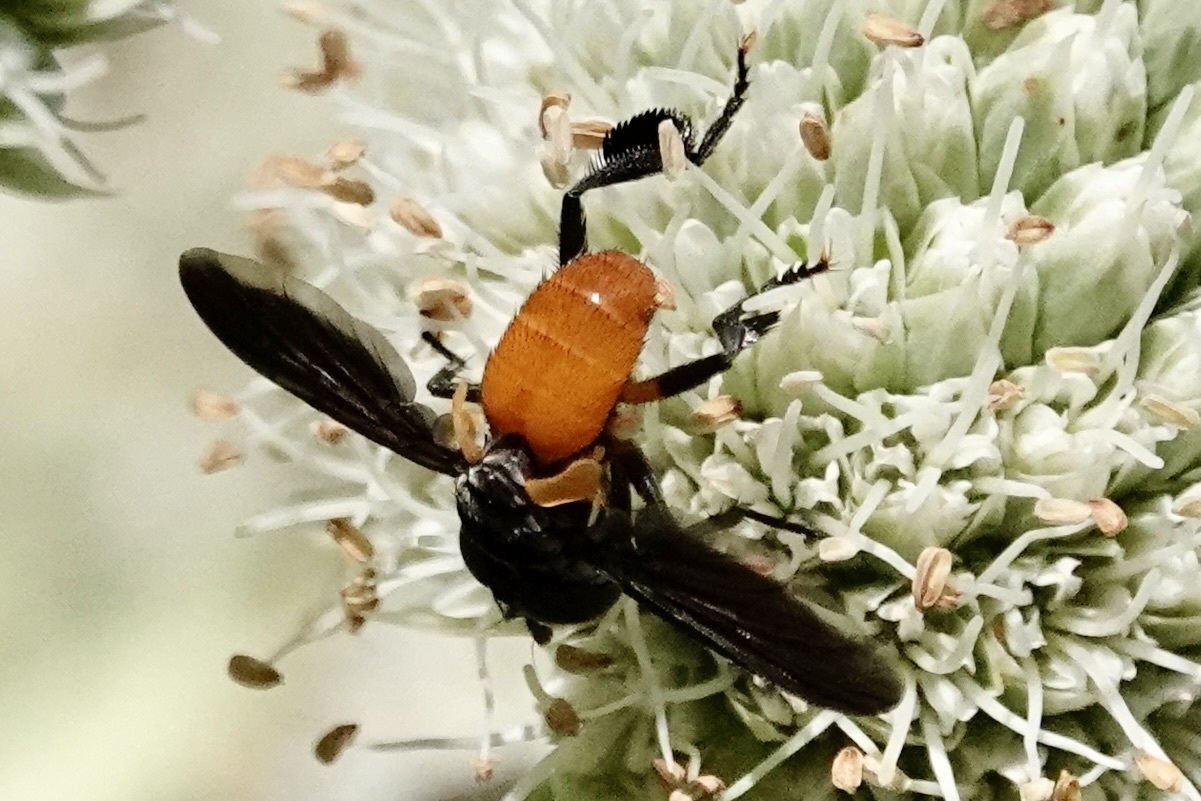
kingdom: Animalia
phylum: Arthropoda
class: Insecta
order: Diptera
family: Tachinidae
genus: Trichopoda
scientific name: Trichopoda pennipes
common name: Tachinid fly
